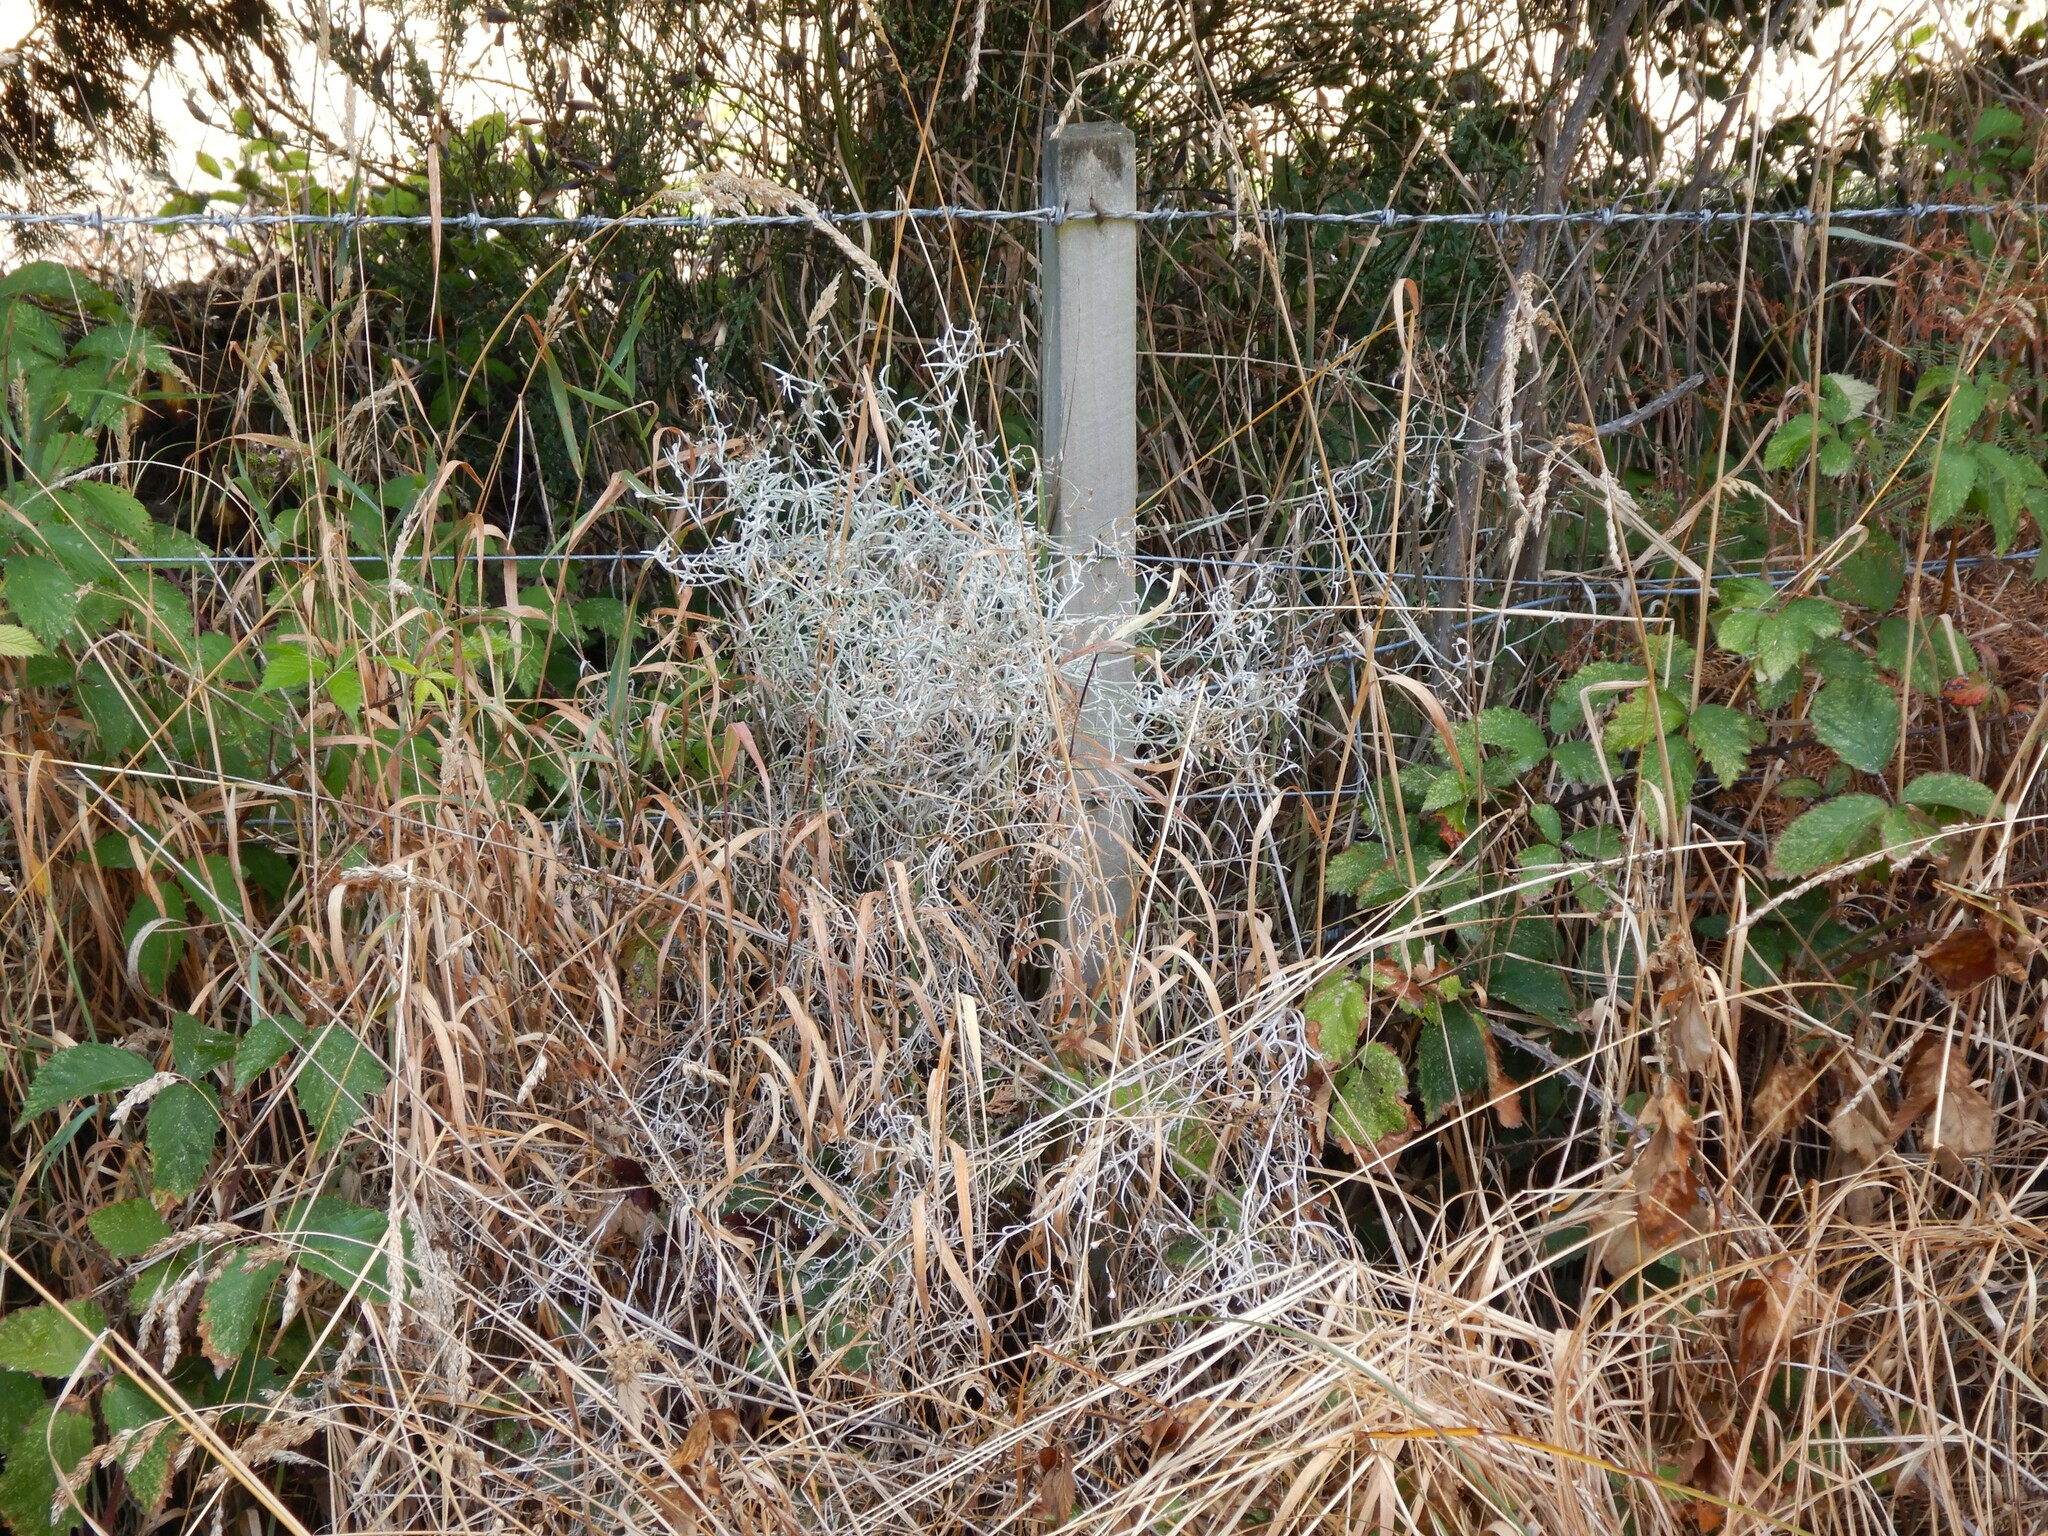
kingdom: Plantae
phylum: Tracheophyta
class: Magnoliopsida
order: Asterales
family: Asteraceae
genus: Senecio
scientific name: Senecio quadridentatus
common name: Cotton fireweed
